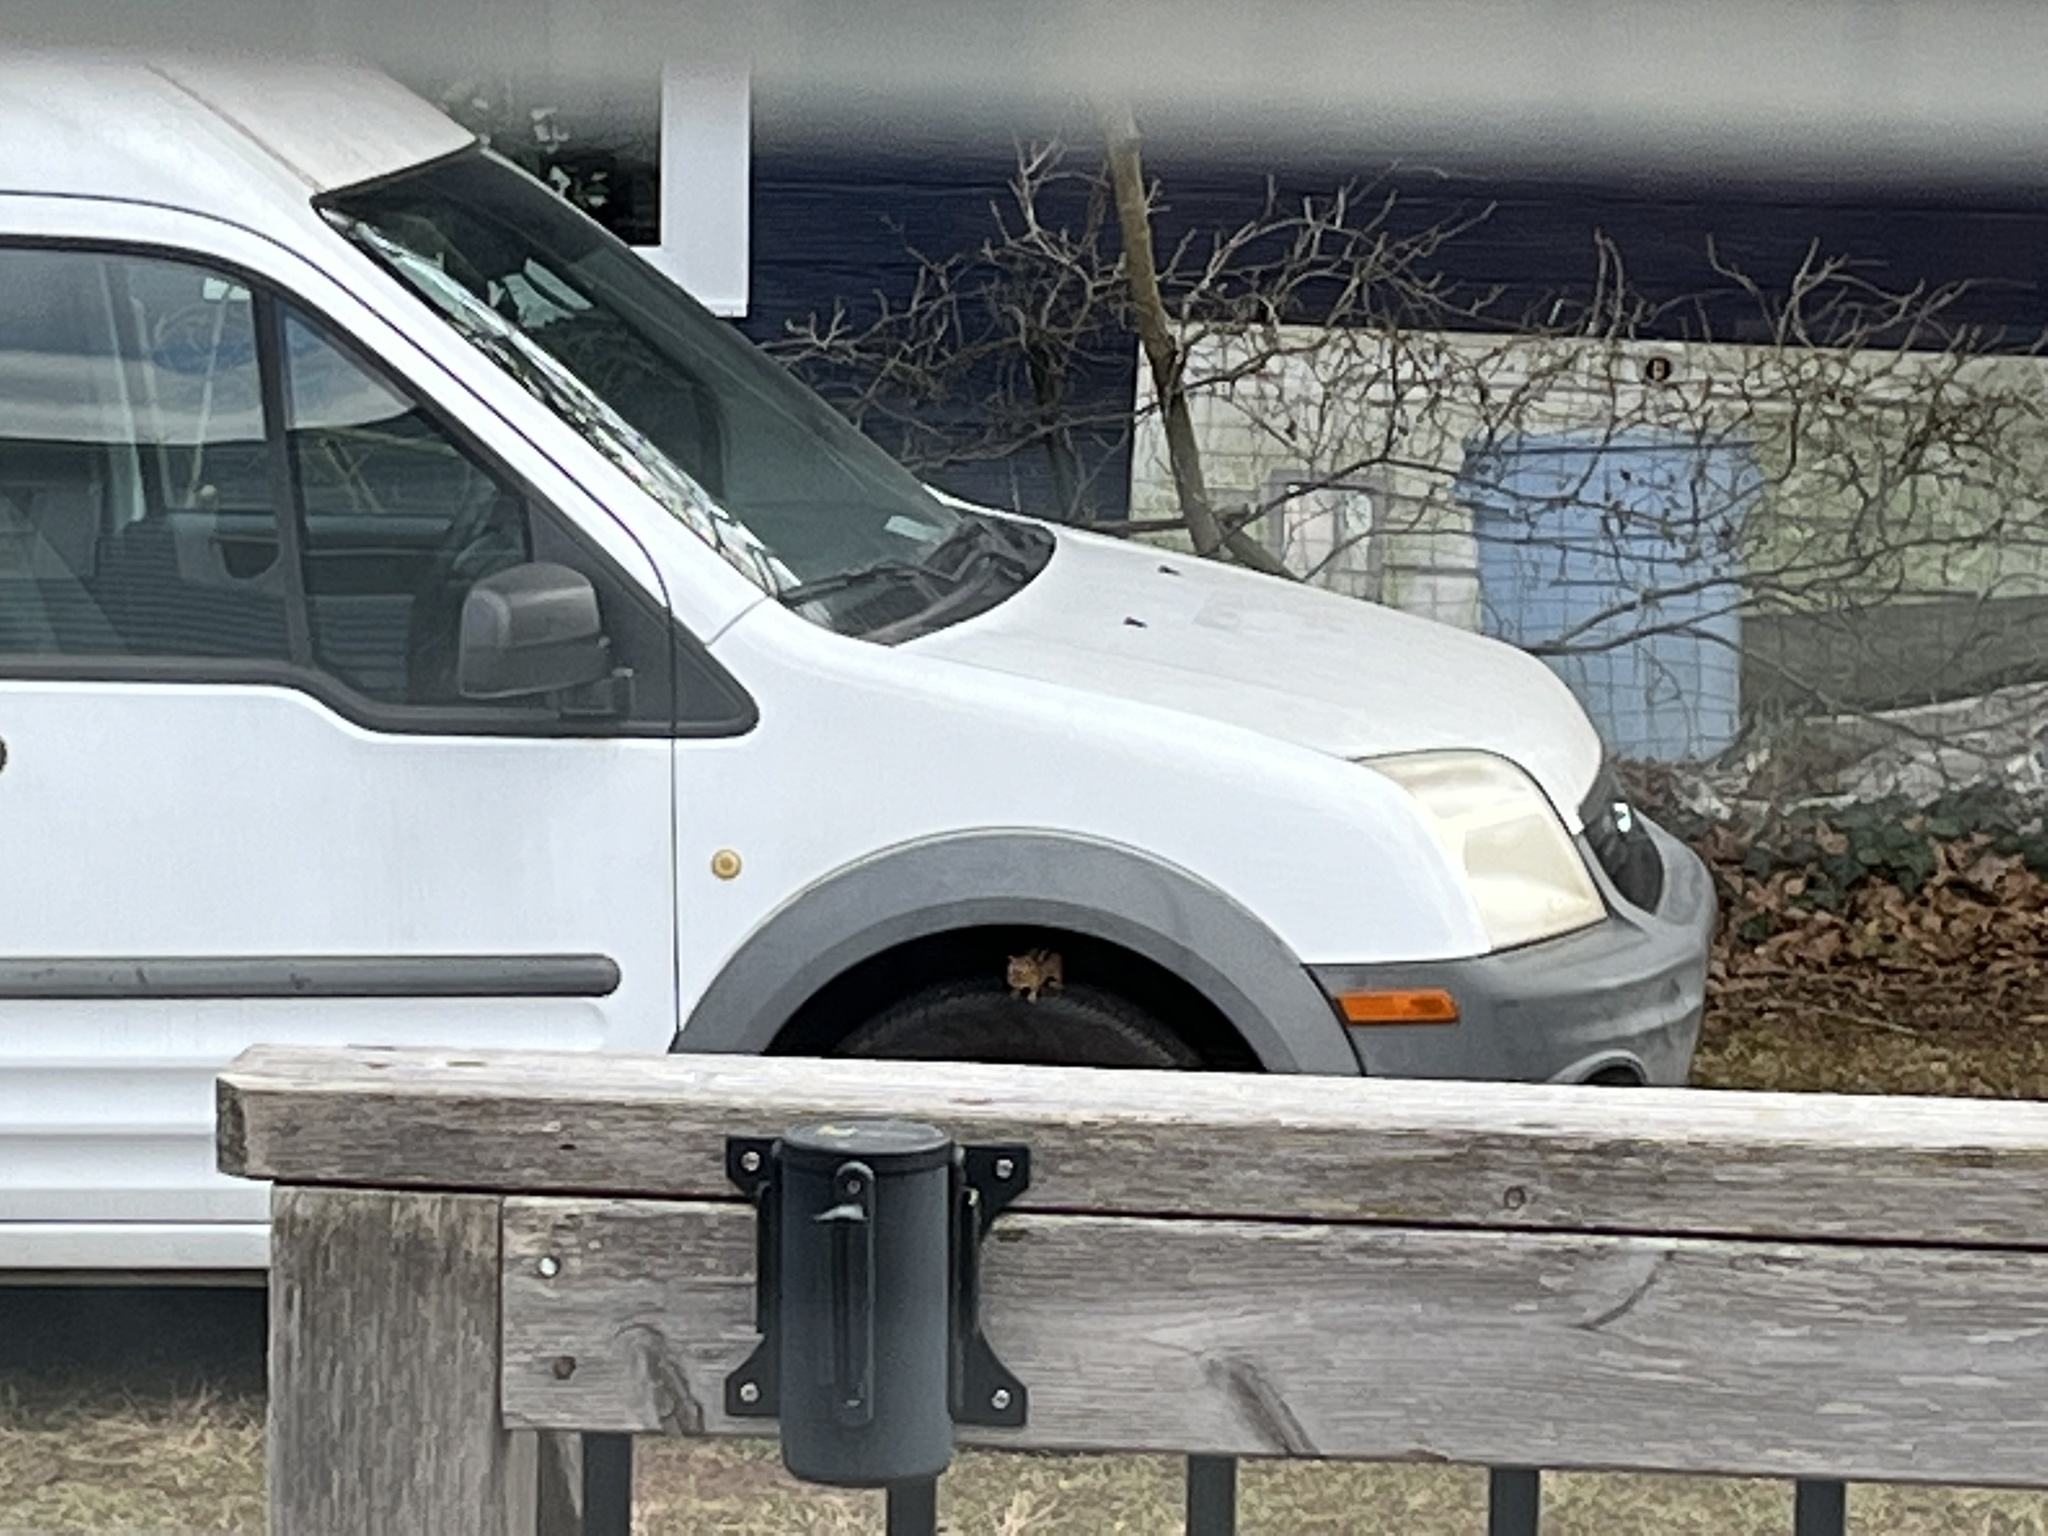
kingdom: Animalia
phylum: Chordata
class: Mammalia
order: Rodentia
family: Sciuridae
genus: Tamias
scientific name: Tamias striatus
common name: Eastern chipmunk
